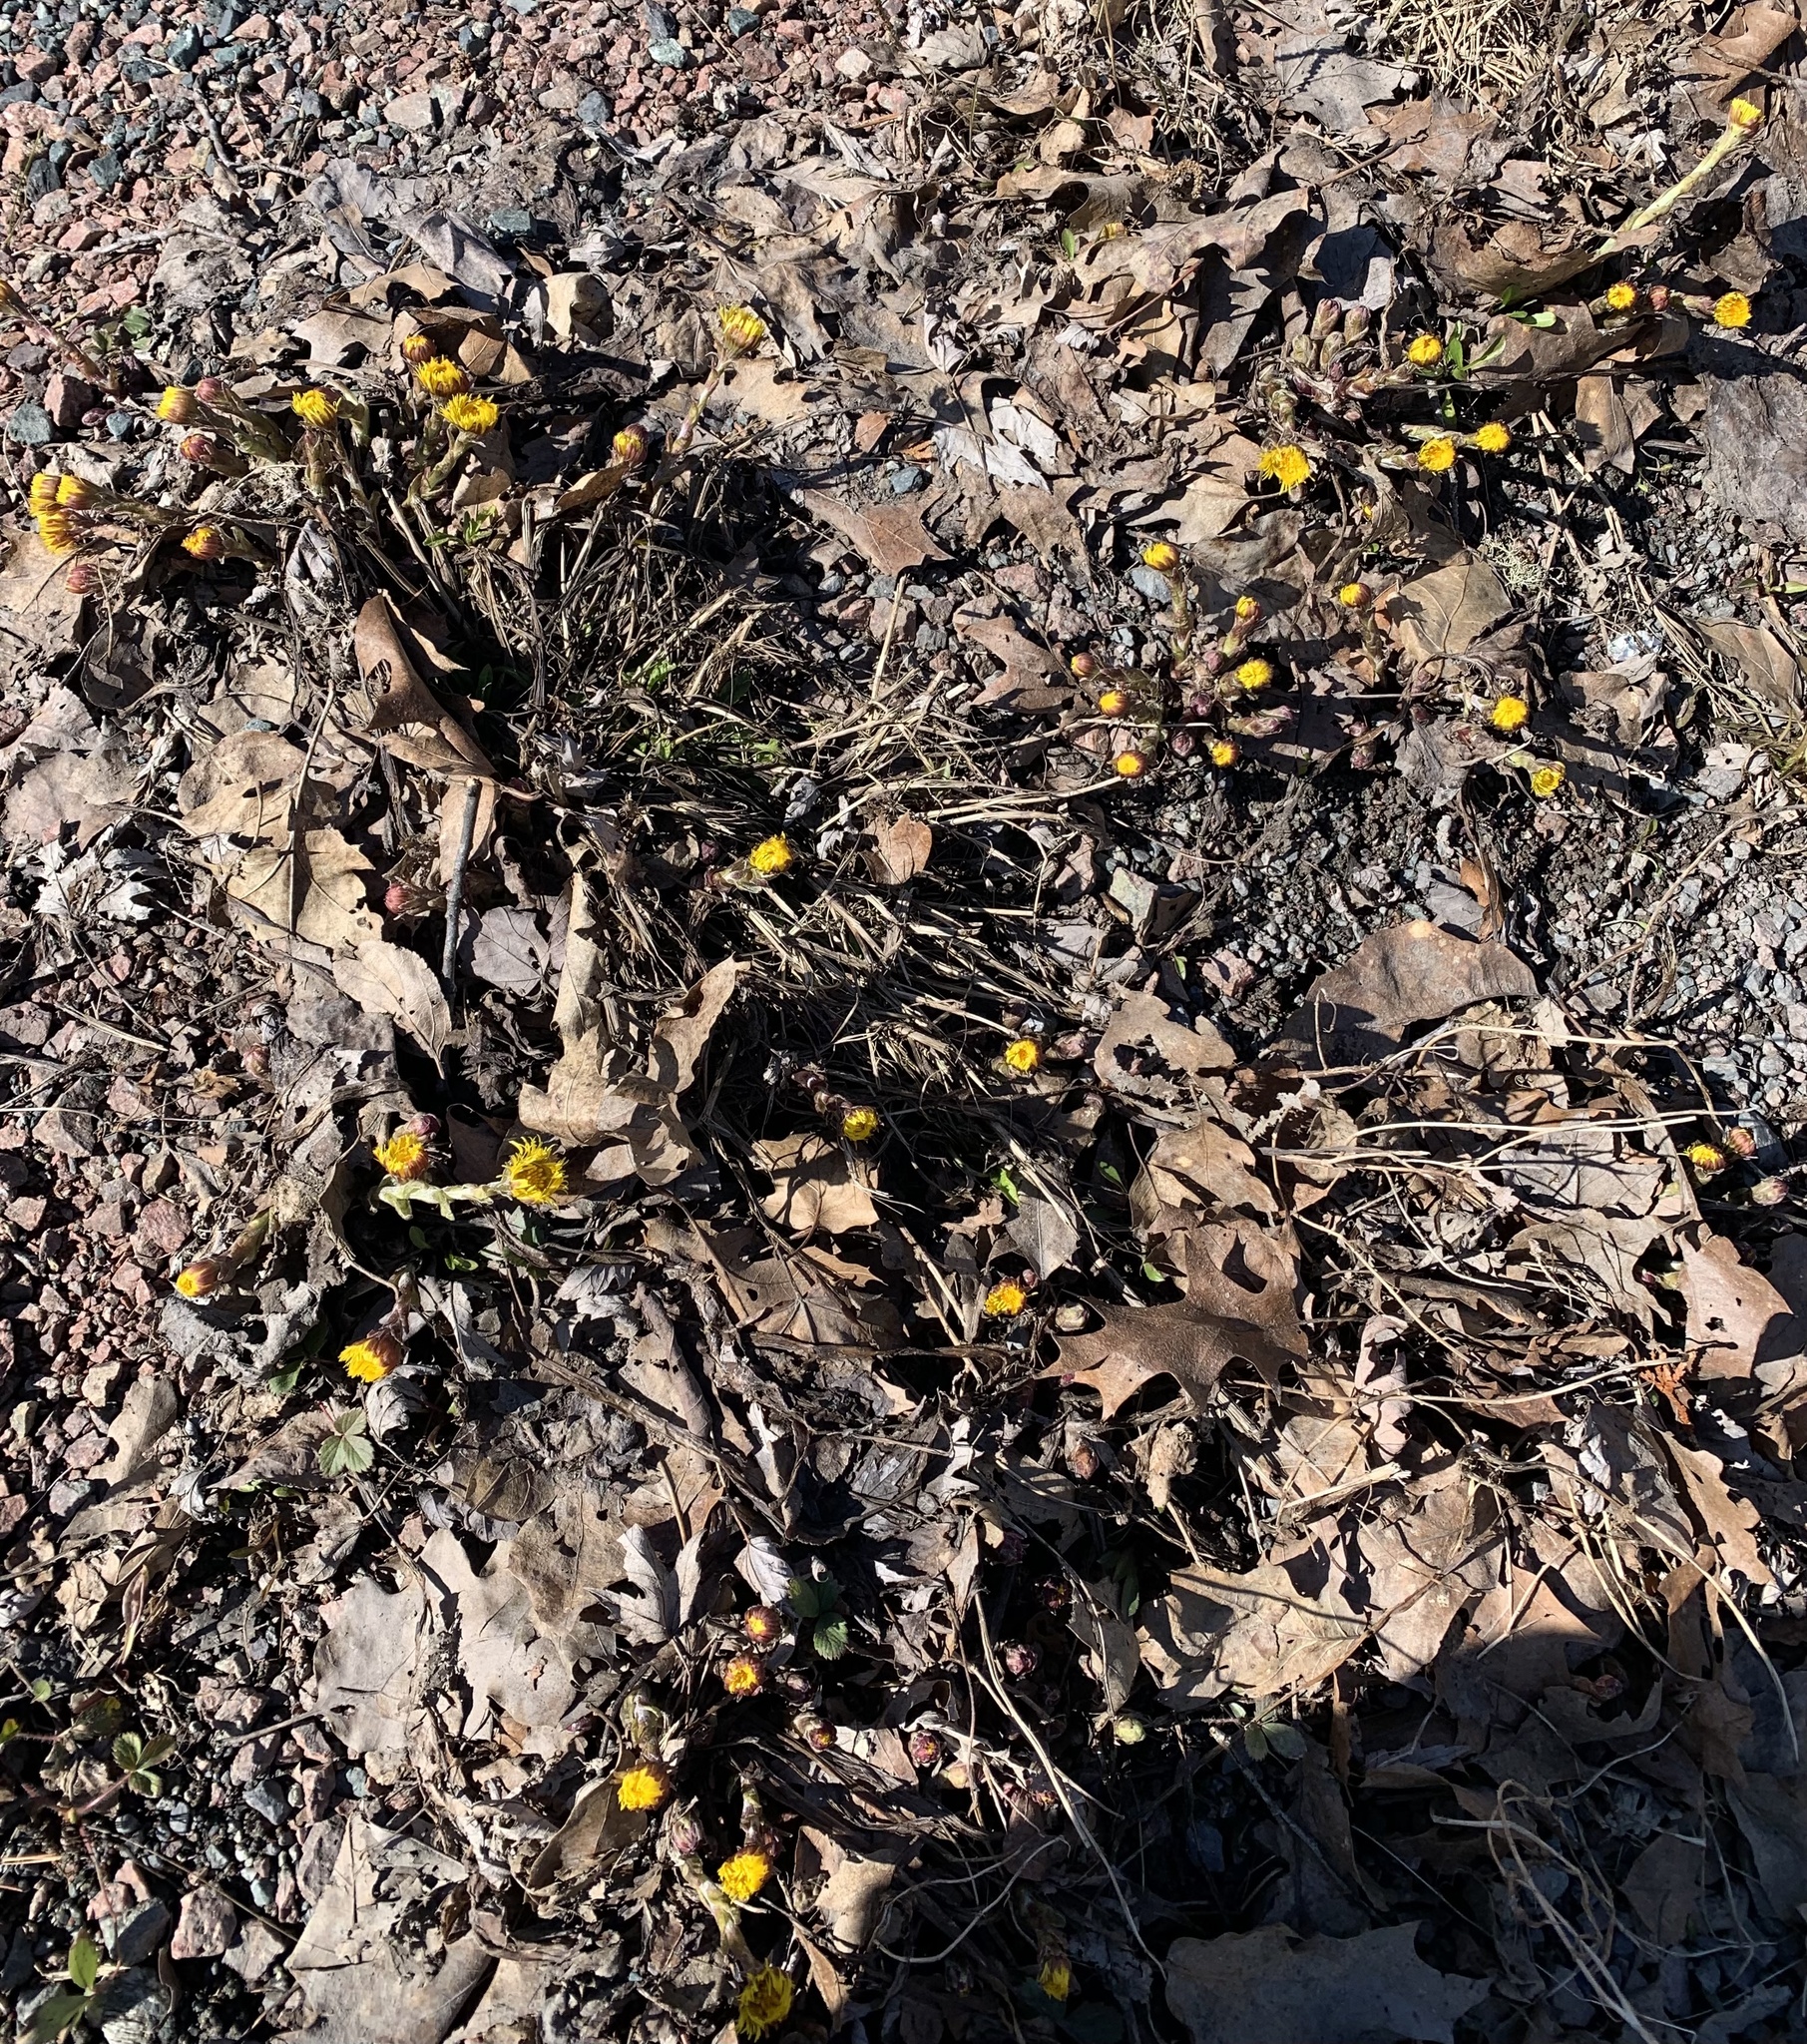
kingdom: Plantae
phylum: Tracheophyta
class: Magnoliopsida
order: Asterales
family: Asteraceae
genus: Tussilago
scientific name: Tussilago farfara
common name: Coltsfoot
